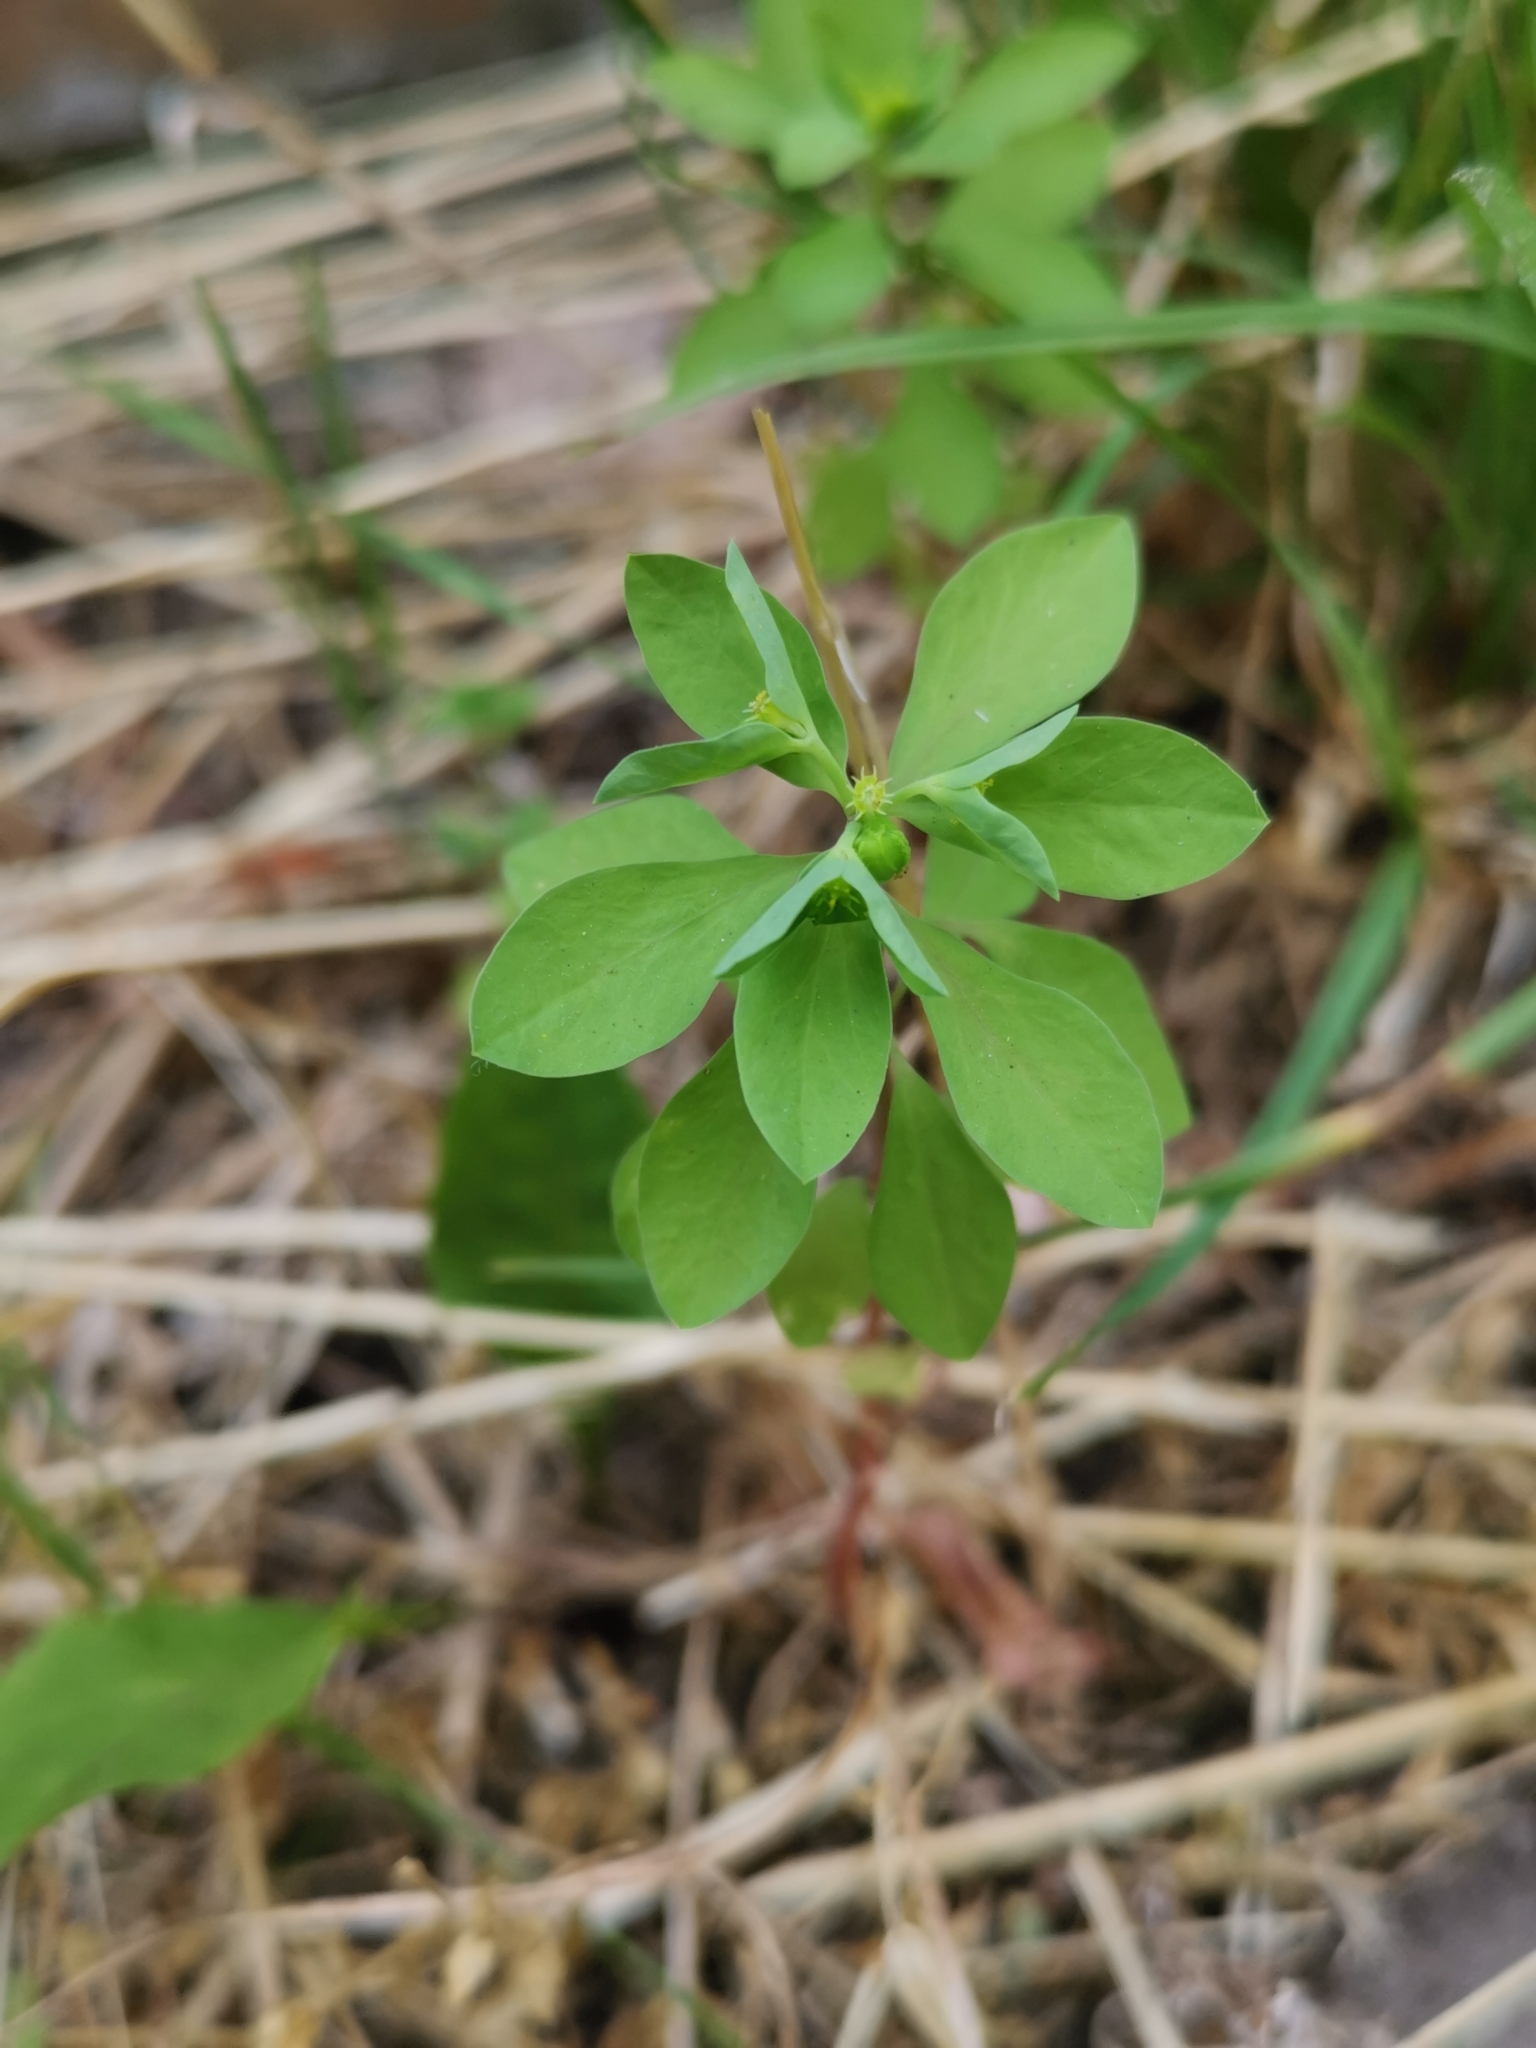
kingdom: Plantae
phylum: Tracheophyta
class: Magnoliopsida
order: Malpighiales
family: Euphorbiaceae
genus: Euphorbia
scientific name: Euphorbia peplus
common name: Petty spurge
